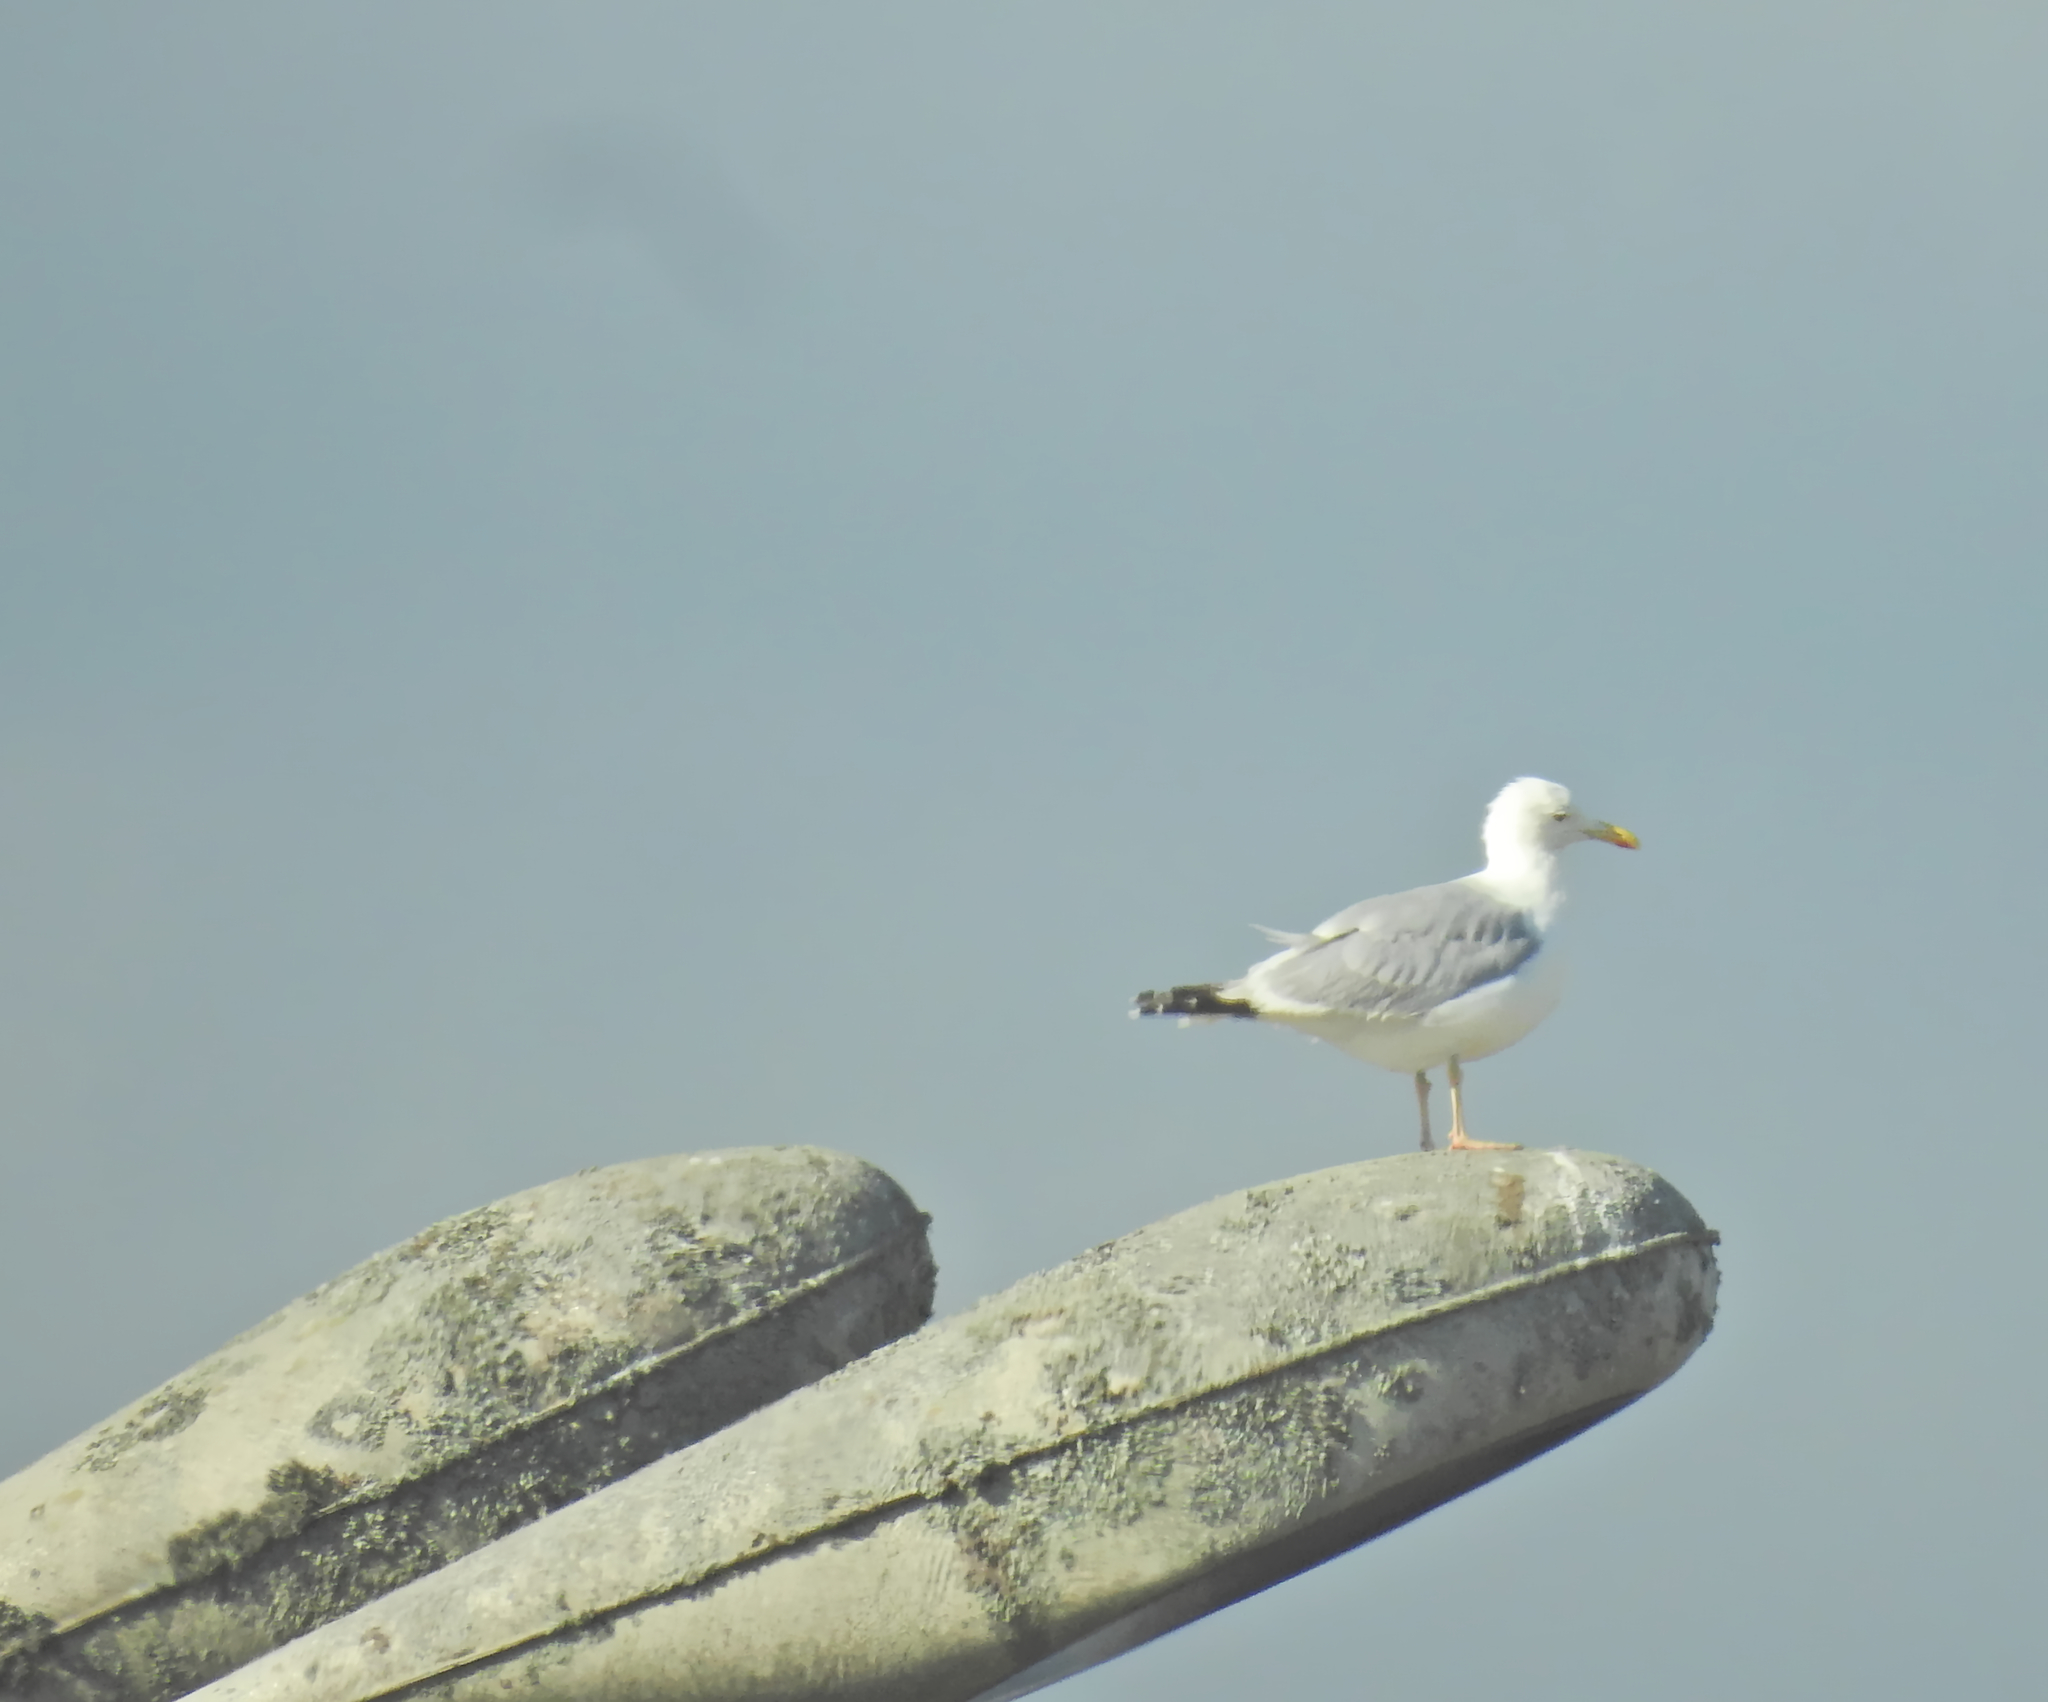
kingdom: Animalia
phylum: Chordata
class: Aves
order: Charadriiformes
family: Laridae
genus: Larus
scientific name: Larus argentatus
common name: Herring gull
